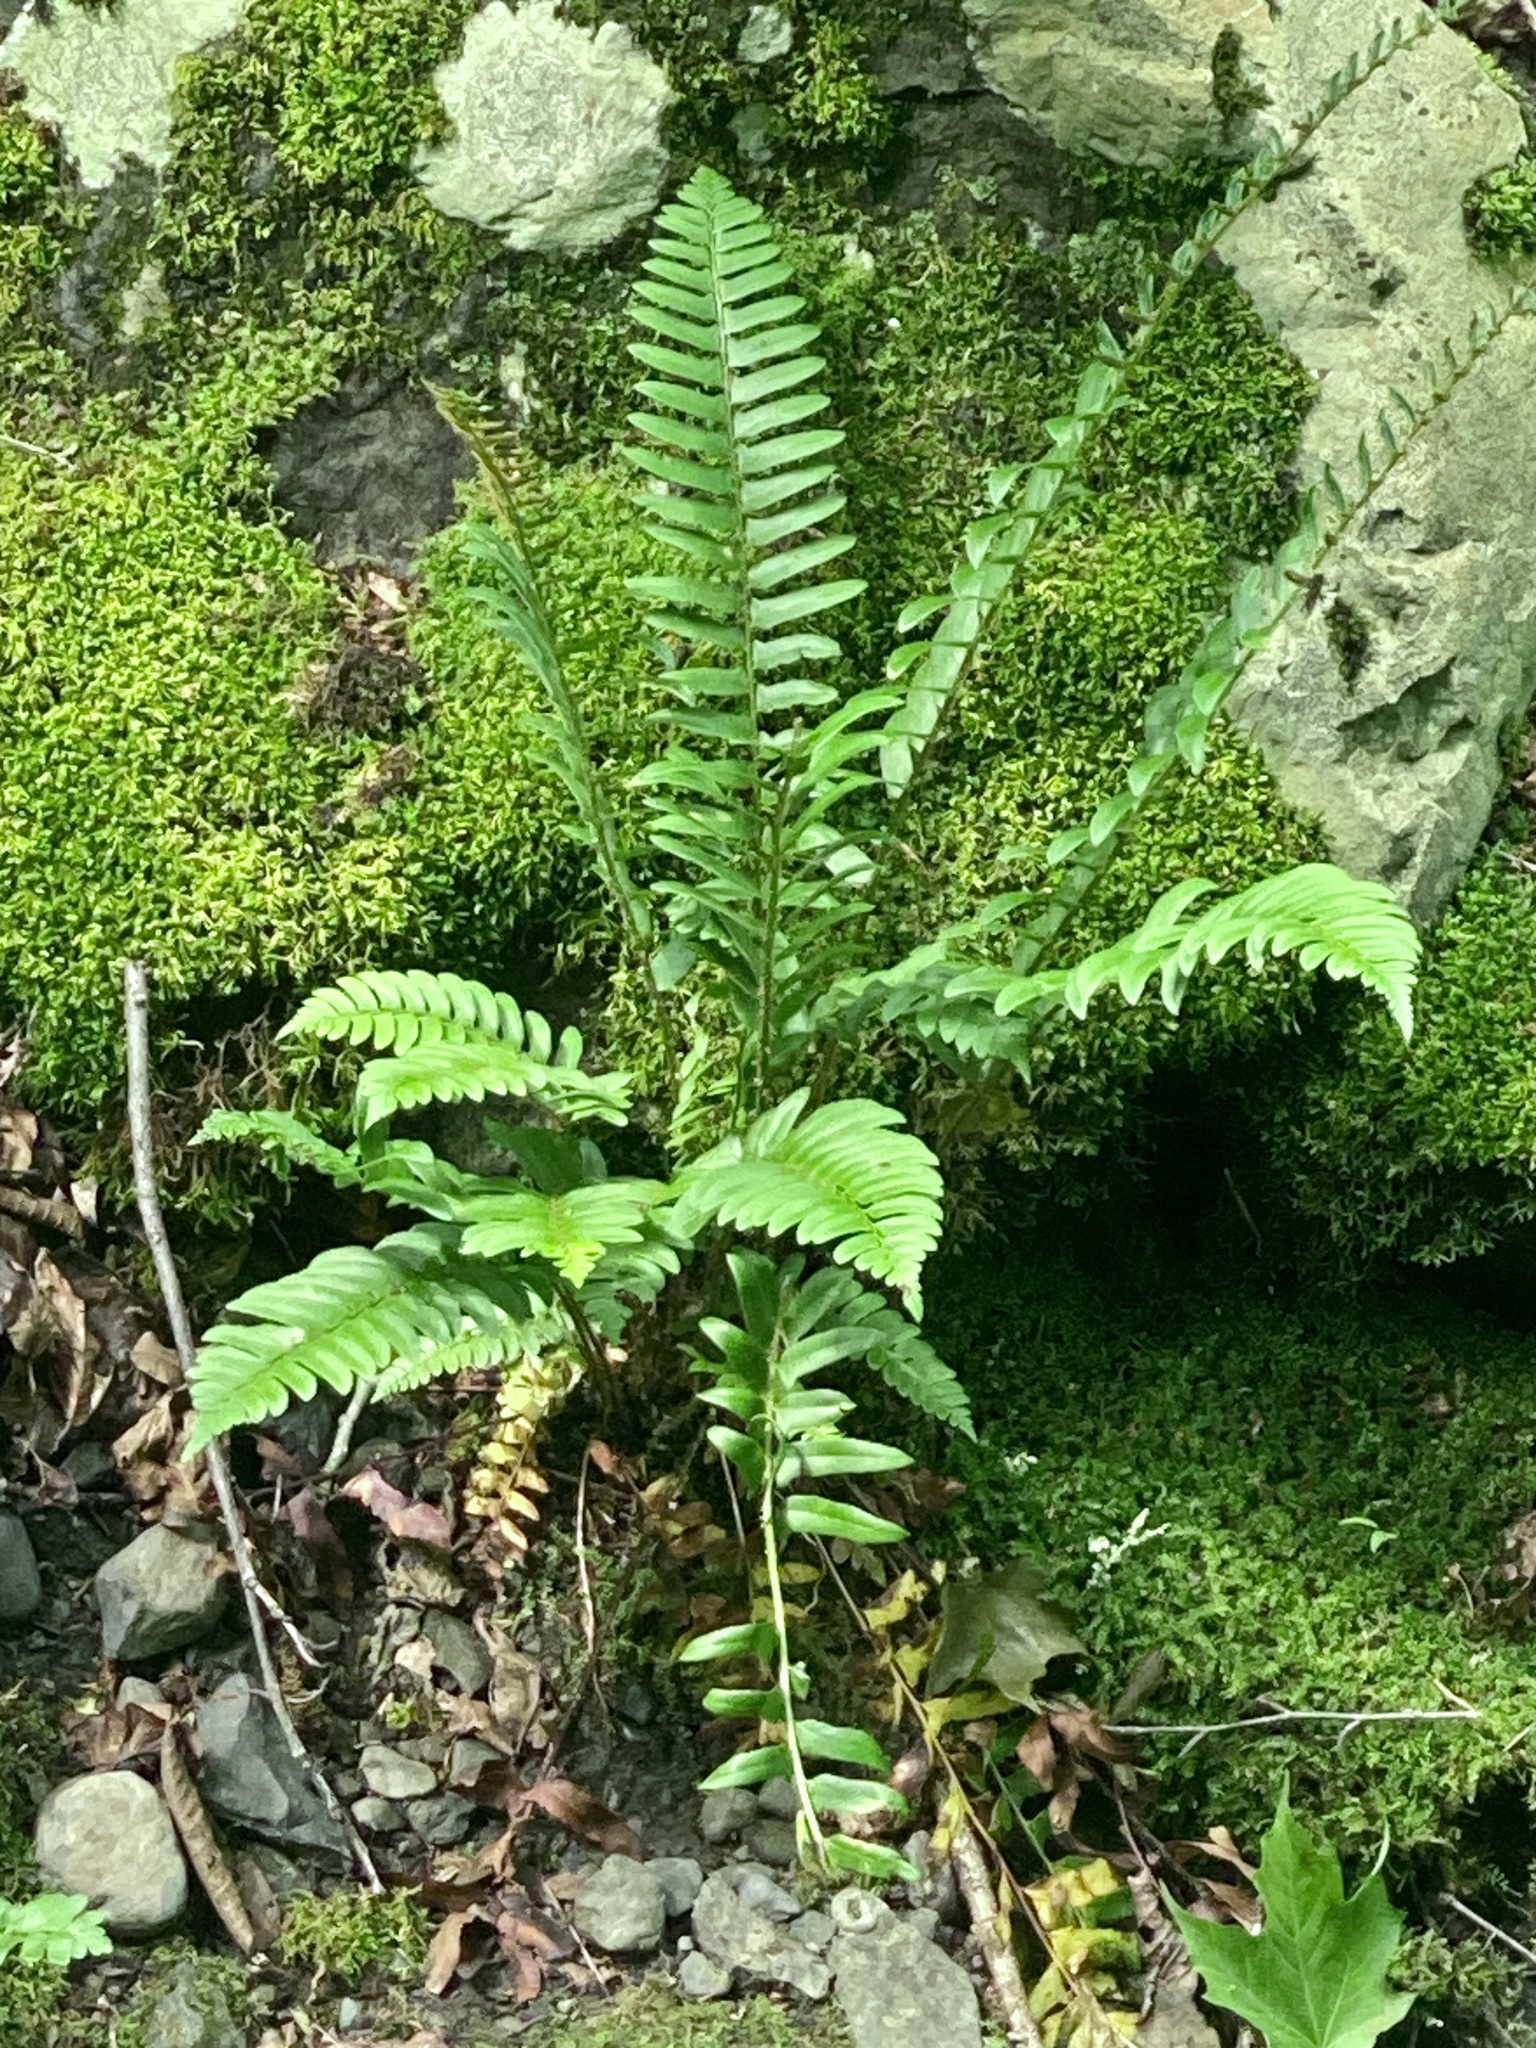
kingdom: Plantae
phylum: Tracheophyta
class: Polypodiopsida
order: Polypodiales
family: Dryopteridaceae
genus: Polystichum
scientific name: Polystichum acrostichoides
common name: Christmas fern
